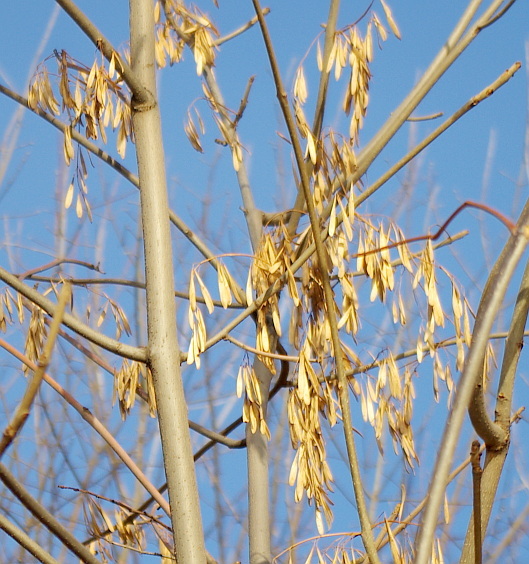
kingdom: Plantae
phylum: Tracheophyta
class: Magnoliopsida
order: Lamiales
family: Oleaceae
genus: Fraxinus
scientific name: Fraxinus pennsylvanica
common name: Green ash
